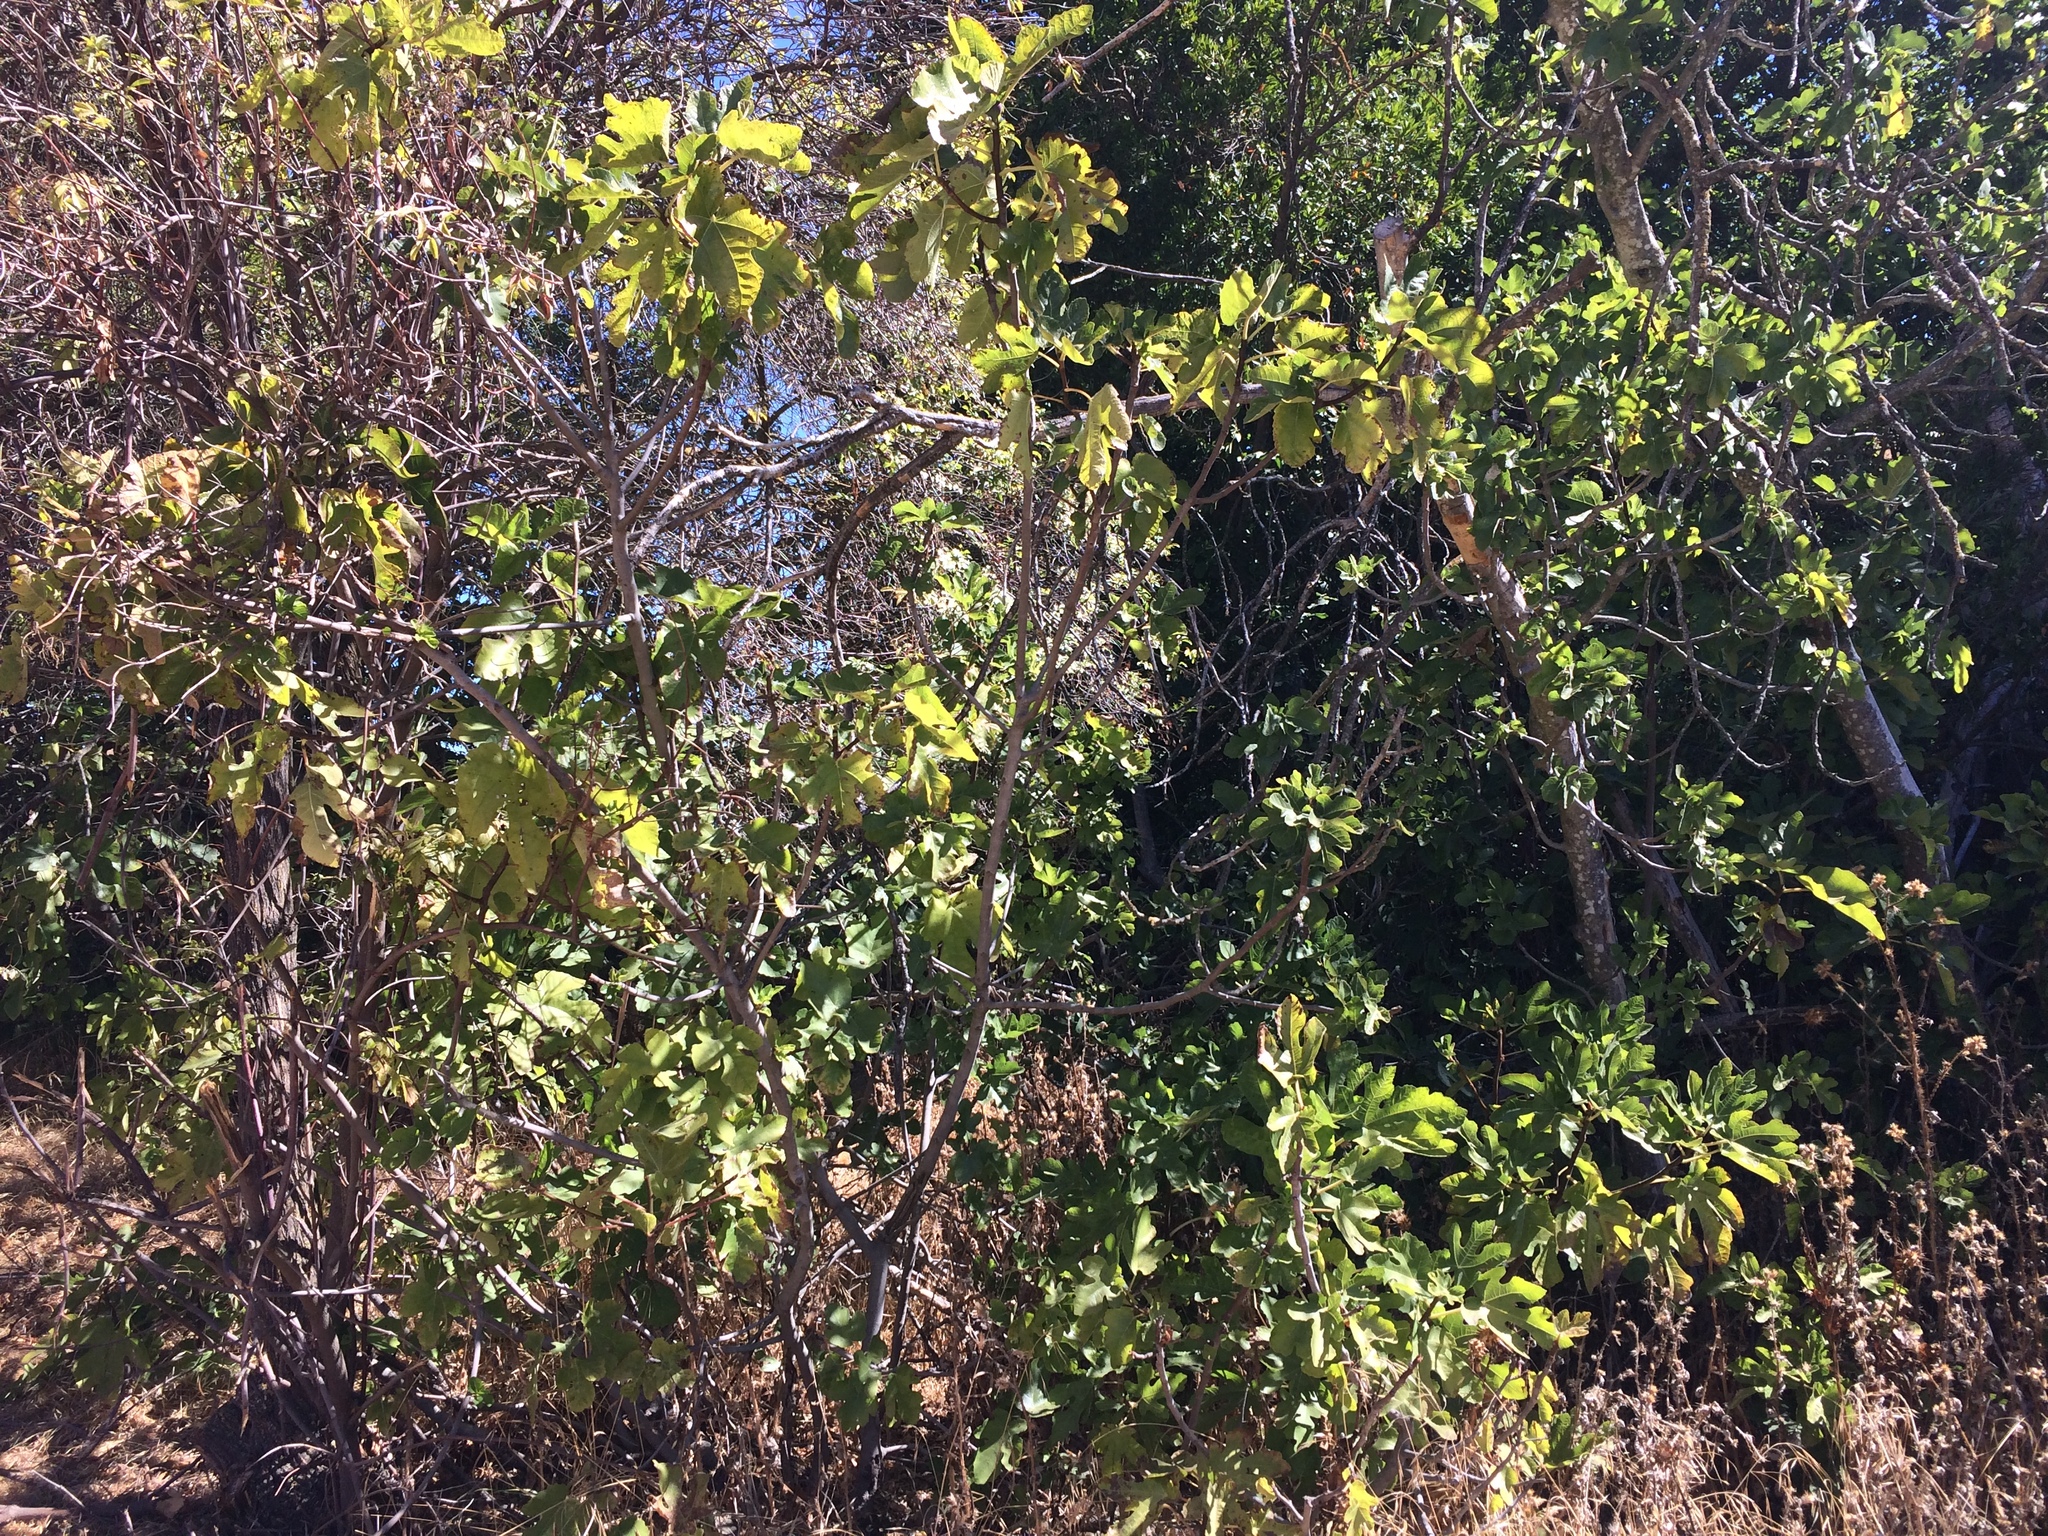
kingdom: Plantae
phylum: Tracheophyta
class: Magnoliopsida
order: Rosales
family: Moraceae
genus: Ficus
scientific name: Ficus carica
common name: Fig
